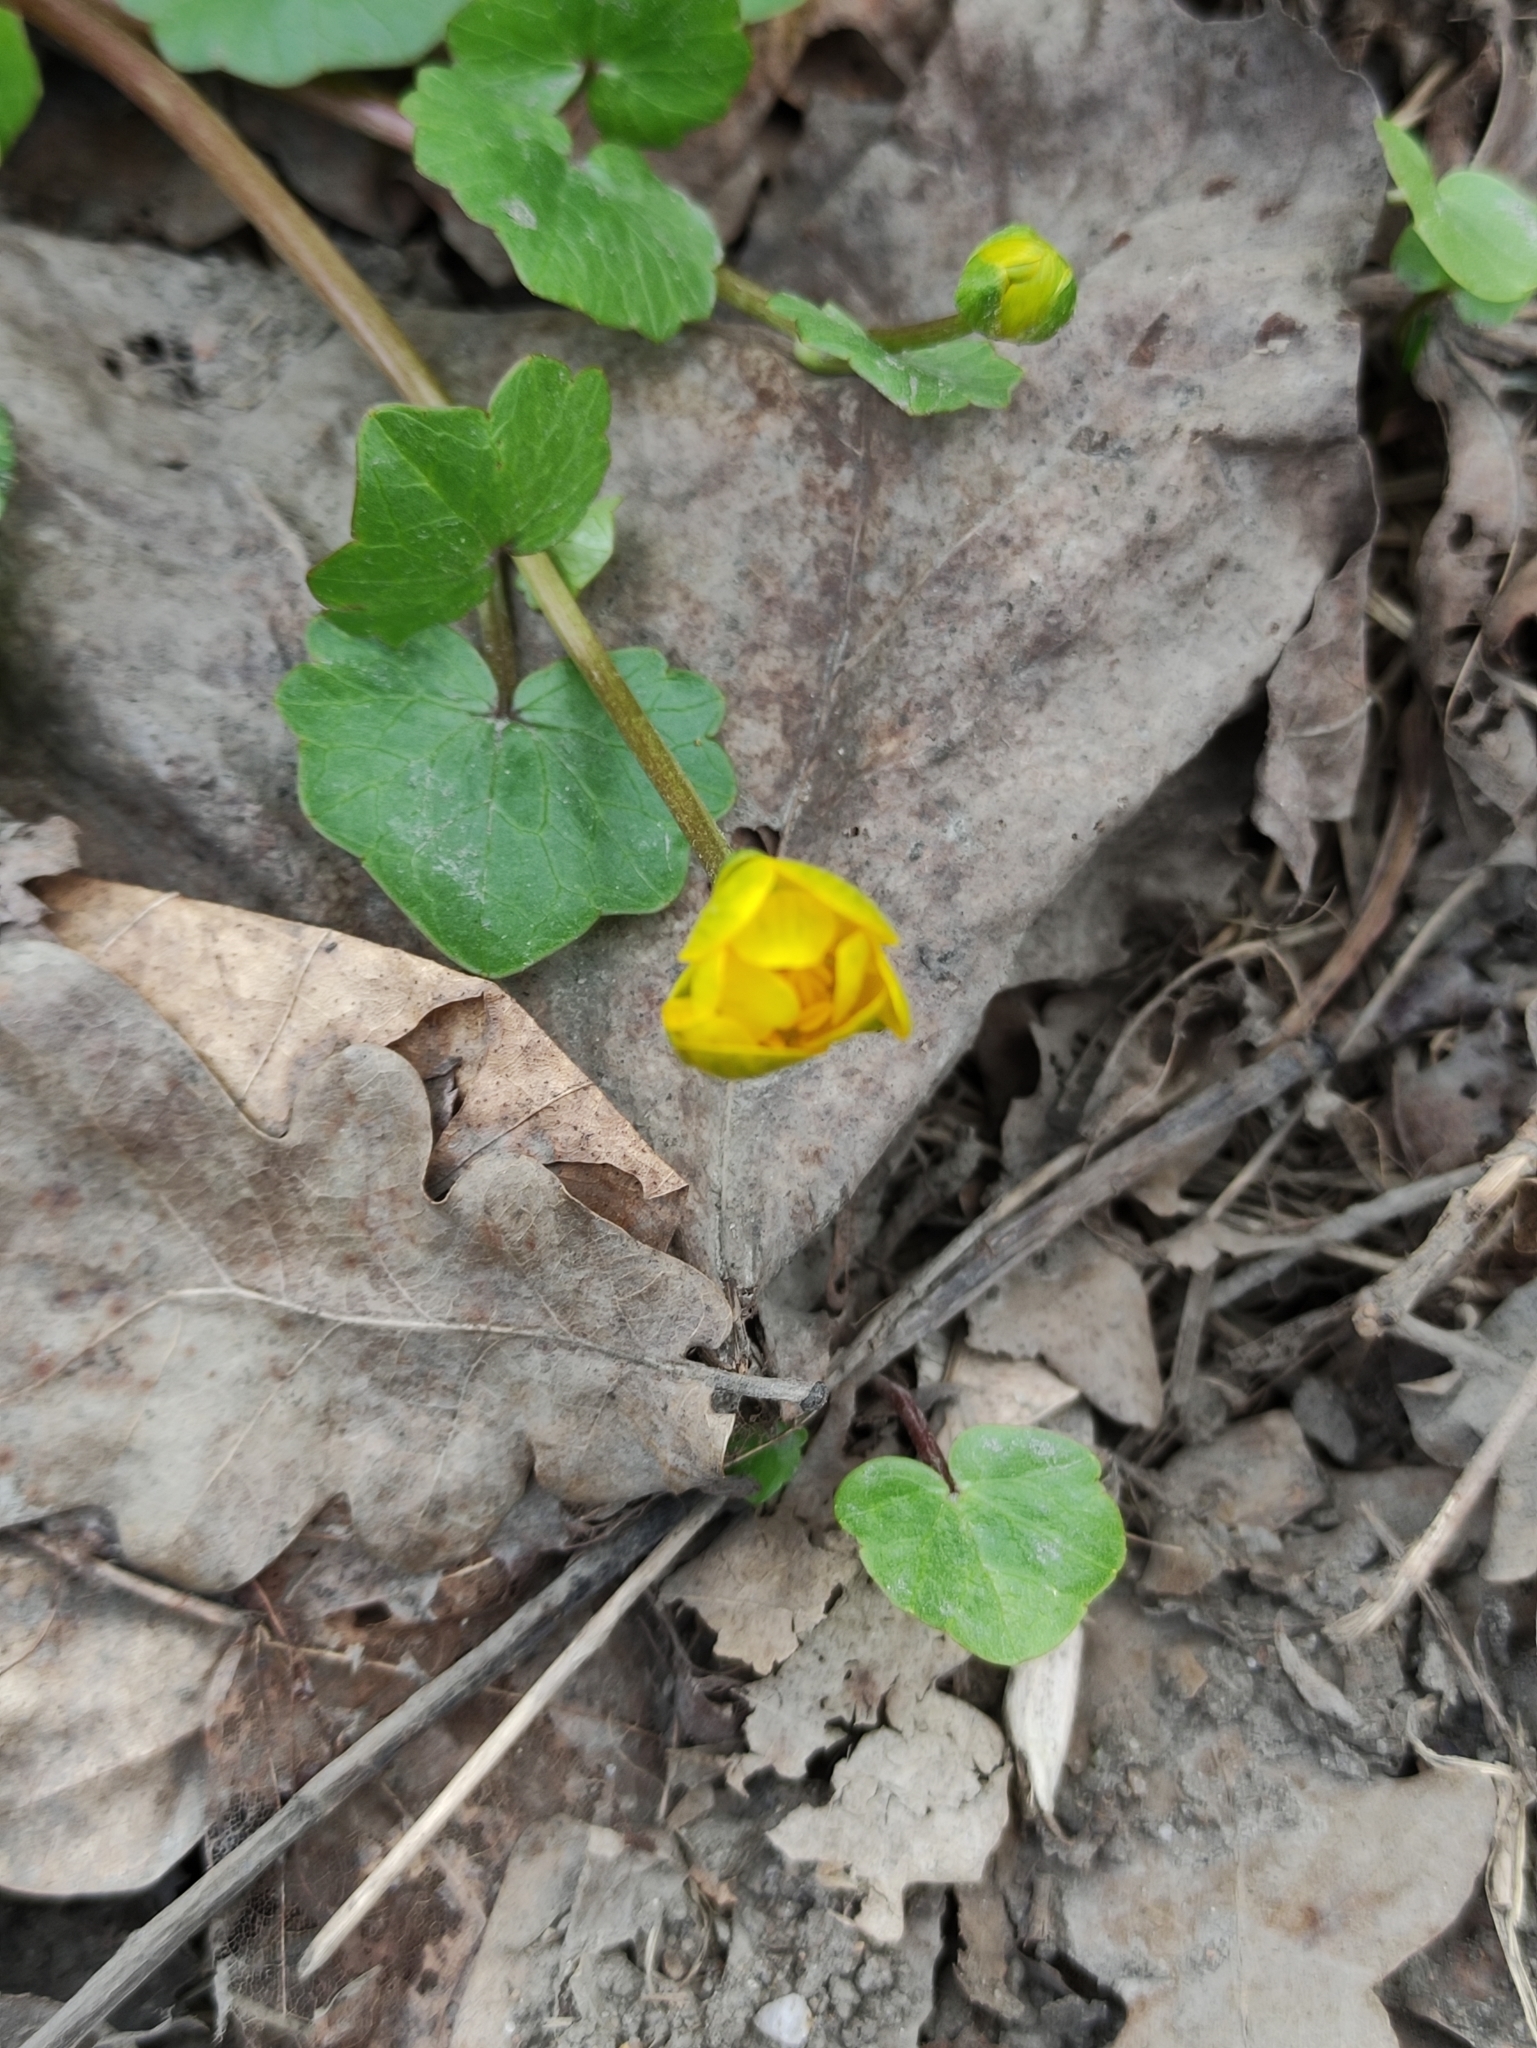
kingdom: Plantae
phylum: Tracheophyta
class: Magnoliopsida
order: Ranunculales
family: Ranunculaceae
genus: Ficaria
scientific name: Ficaria verna
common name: Lesser celandine
